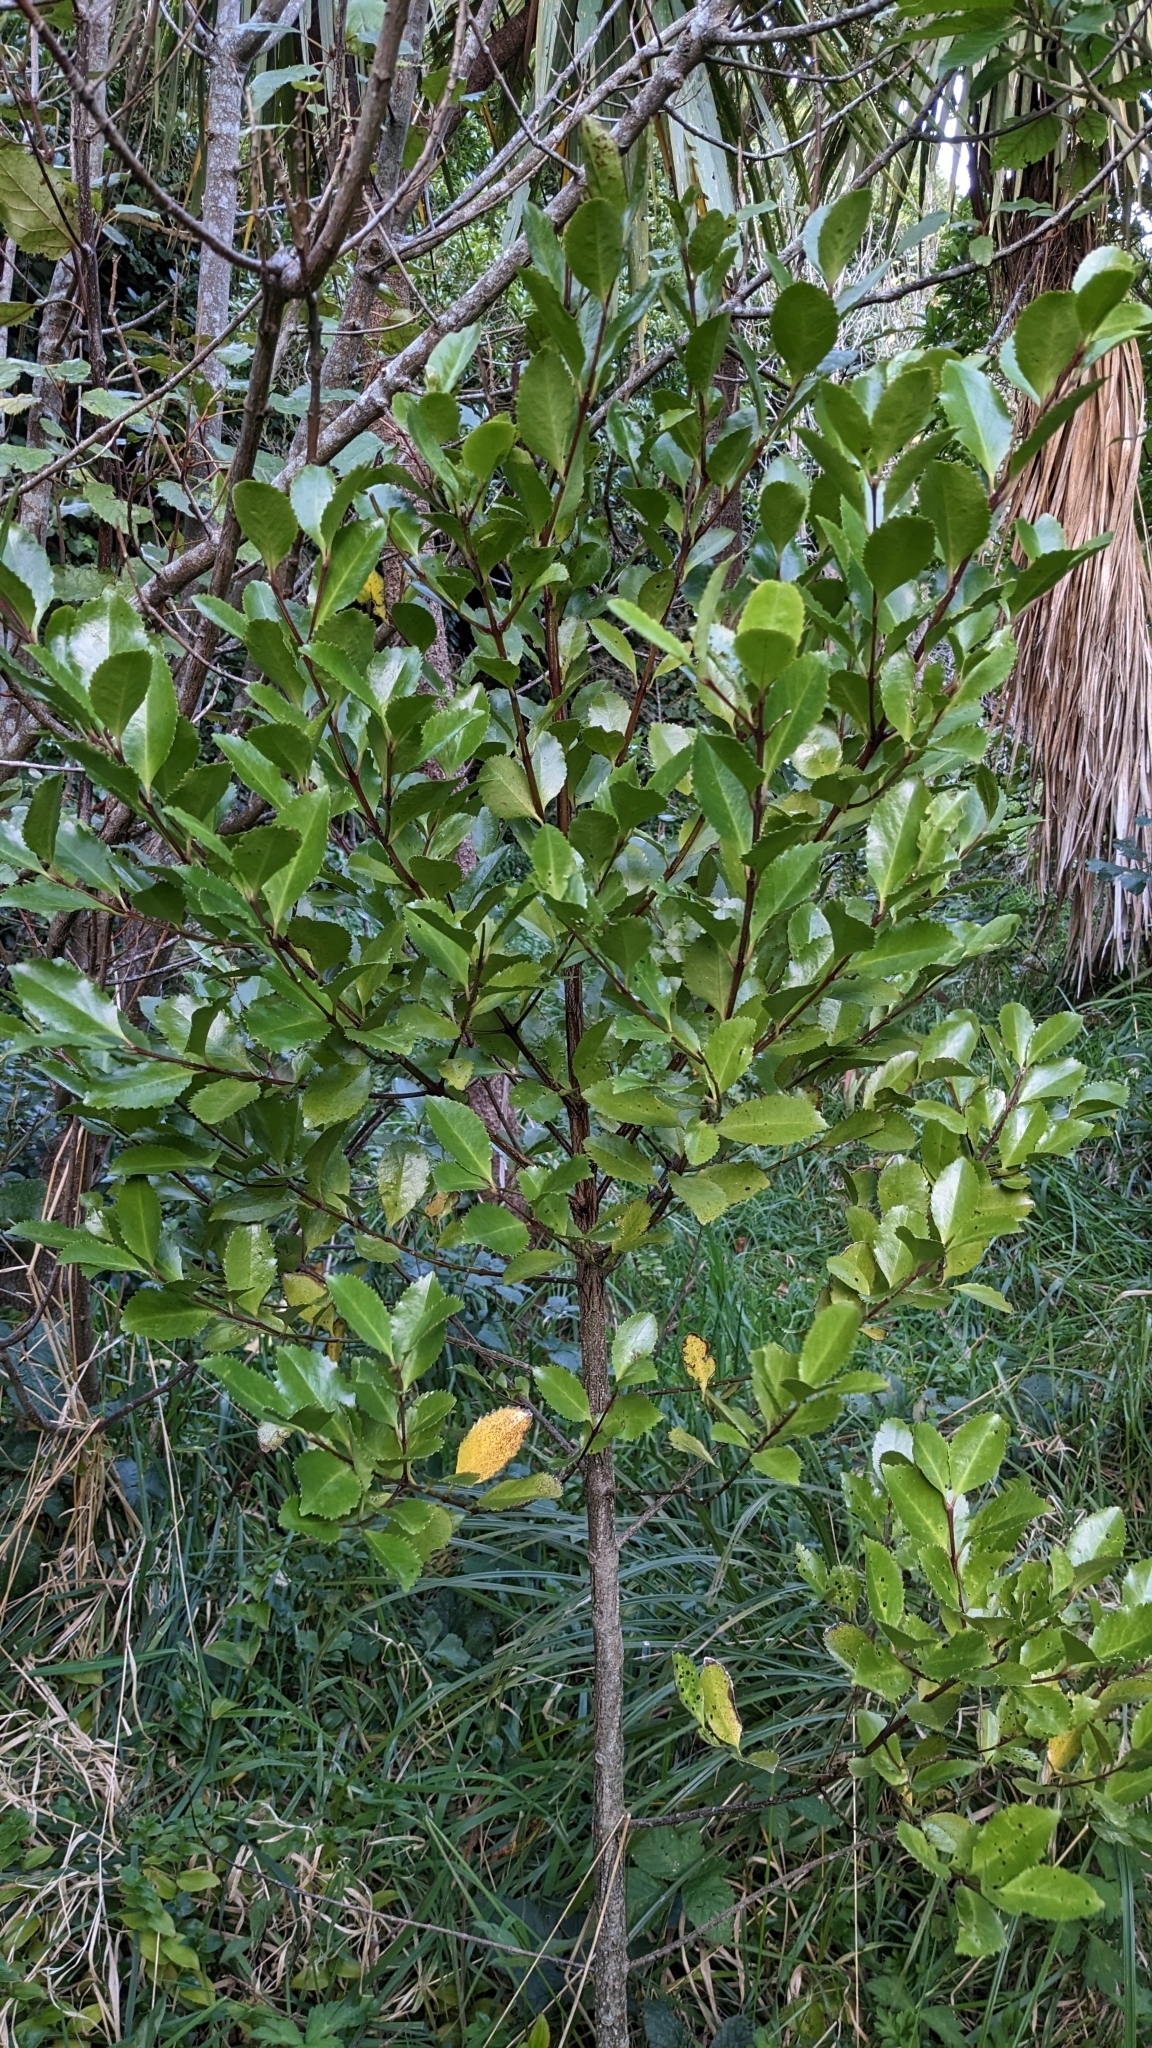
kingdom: Plantae
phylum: Tracheophyta
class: Magnoliopsida
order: Laurales
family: Atherospermataceae
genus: Laurelia
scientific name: Laurelia novae-zelandiae
